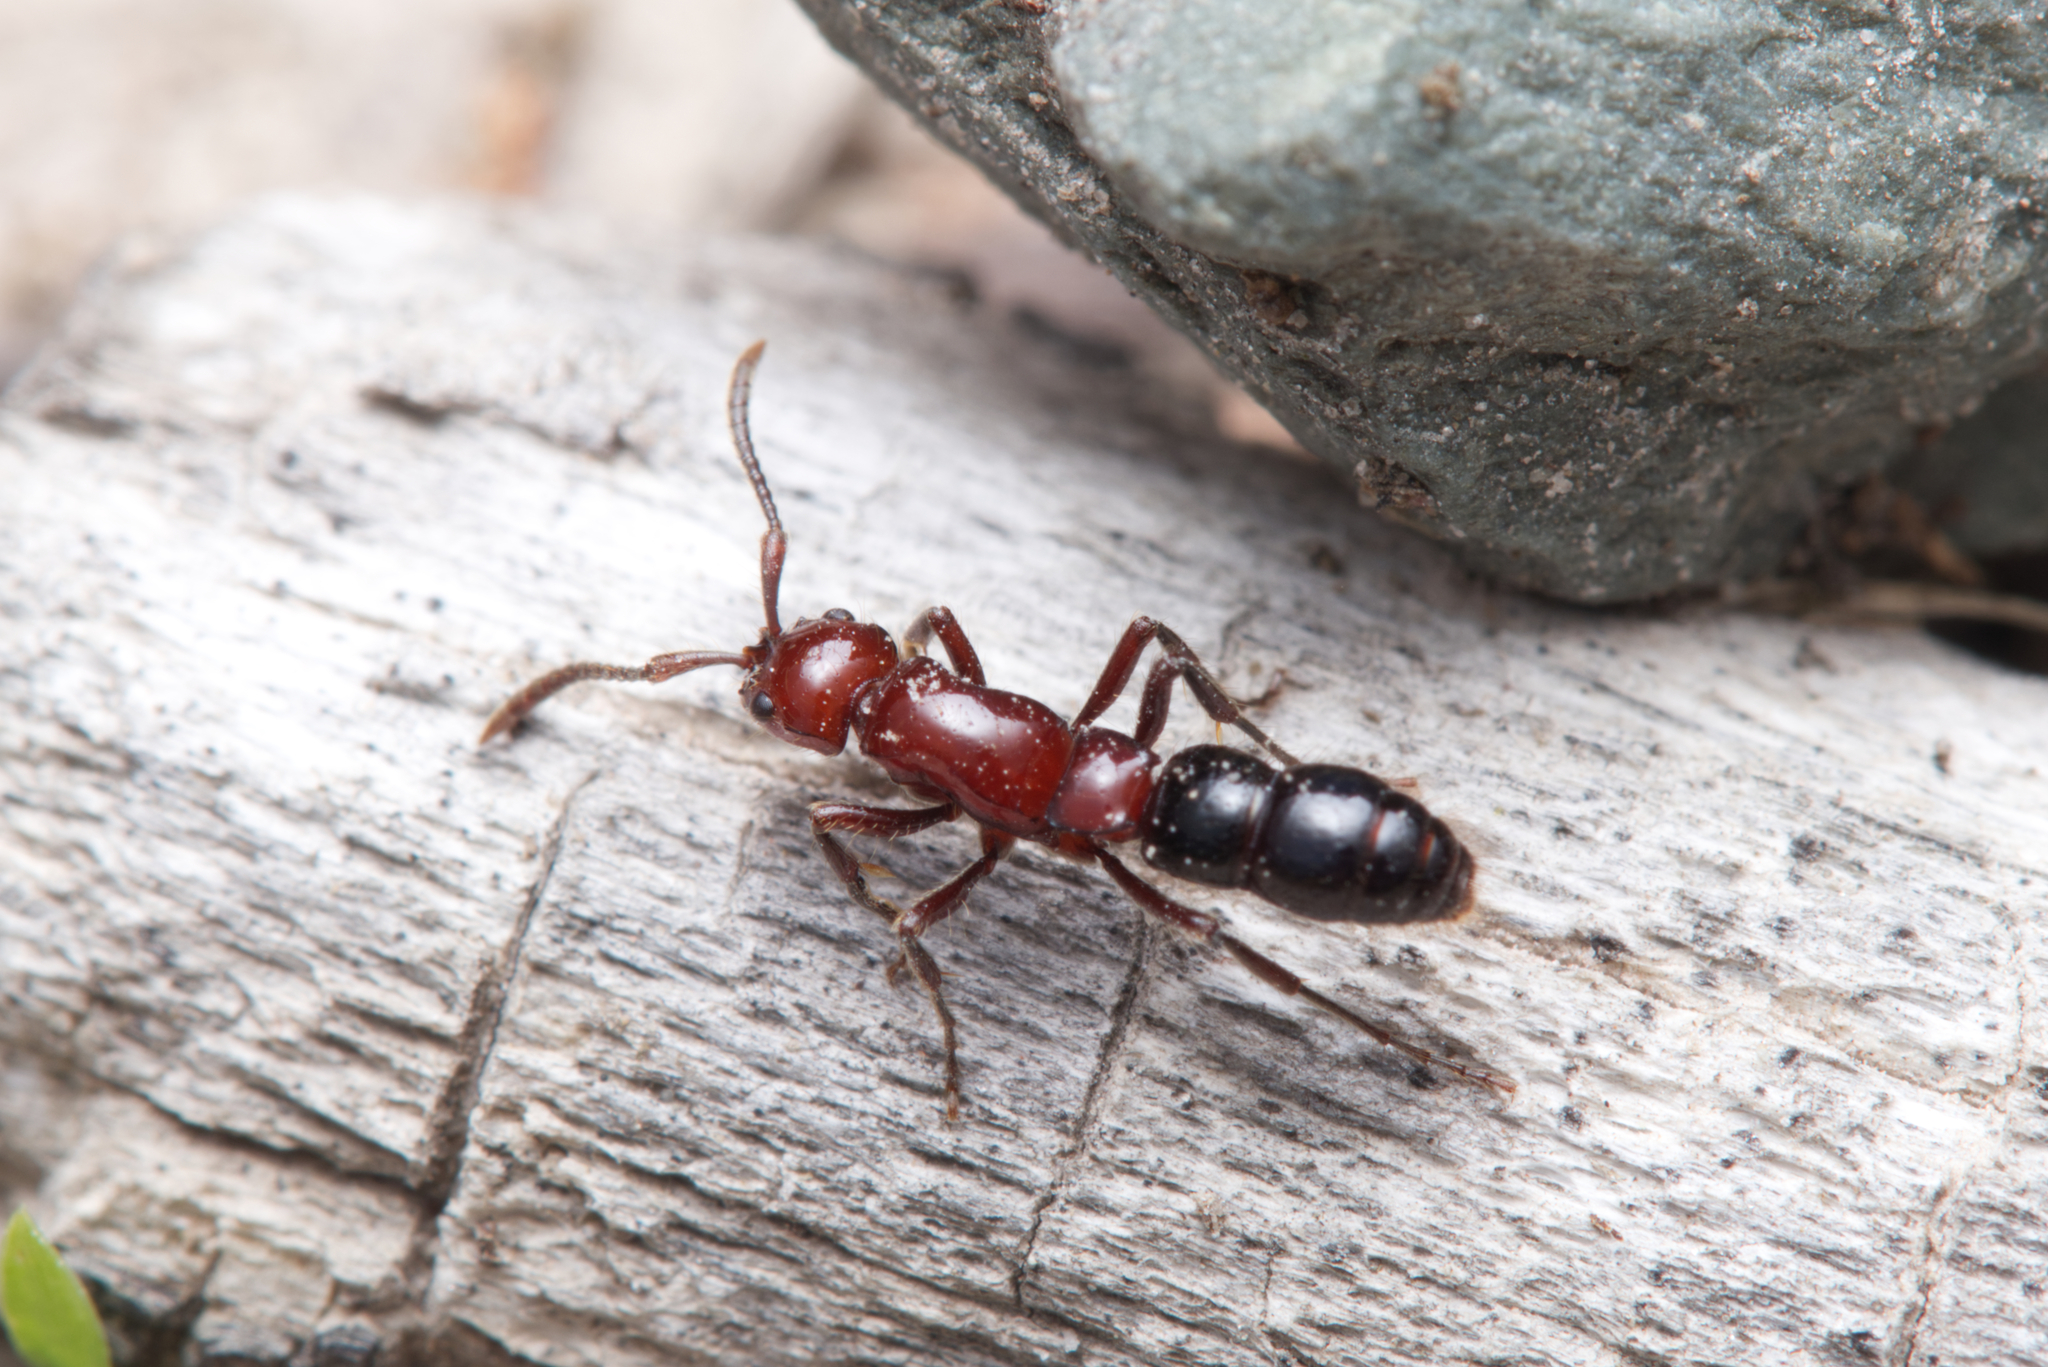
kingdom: Animalia
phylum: Arthropoda
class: Insecta
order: Hymenoptera
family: Formicidae
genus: Lioponera
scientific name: Lioponera
